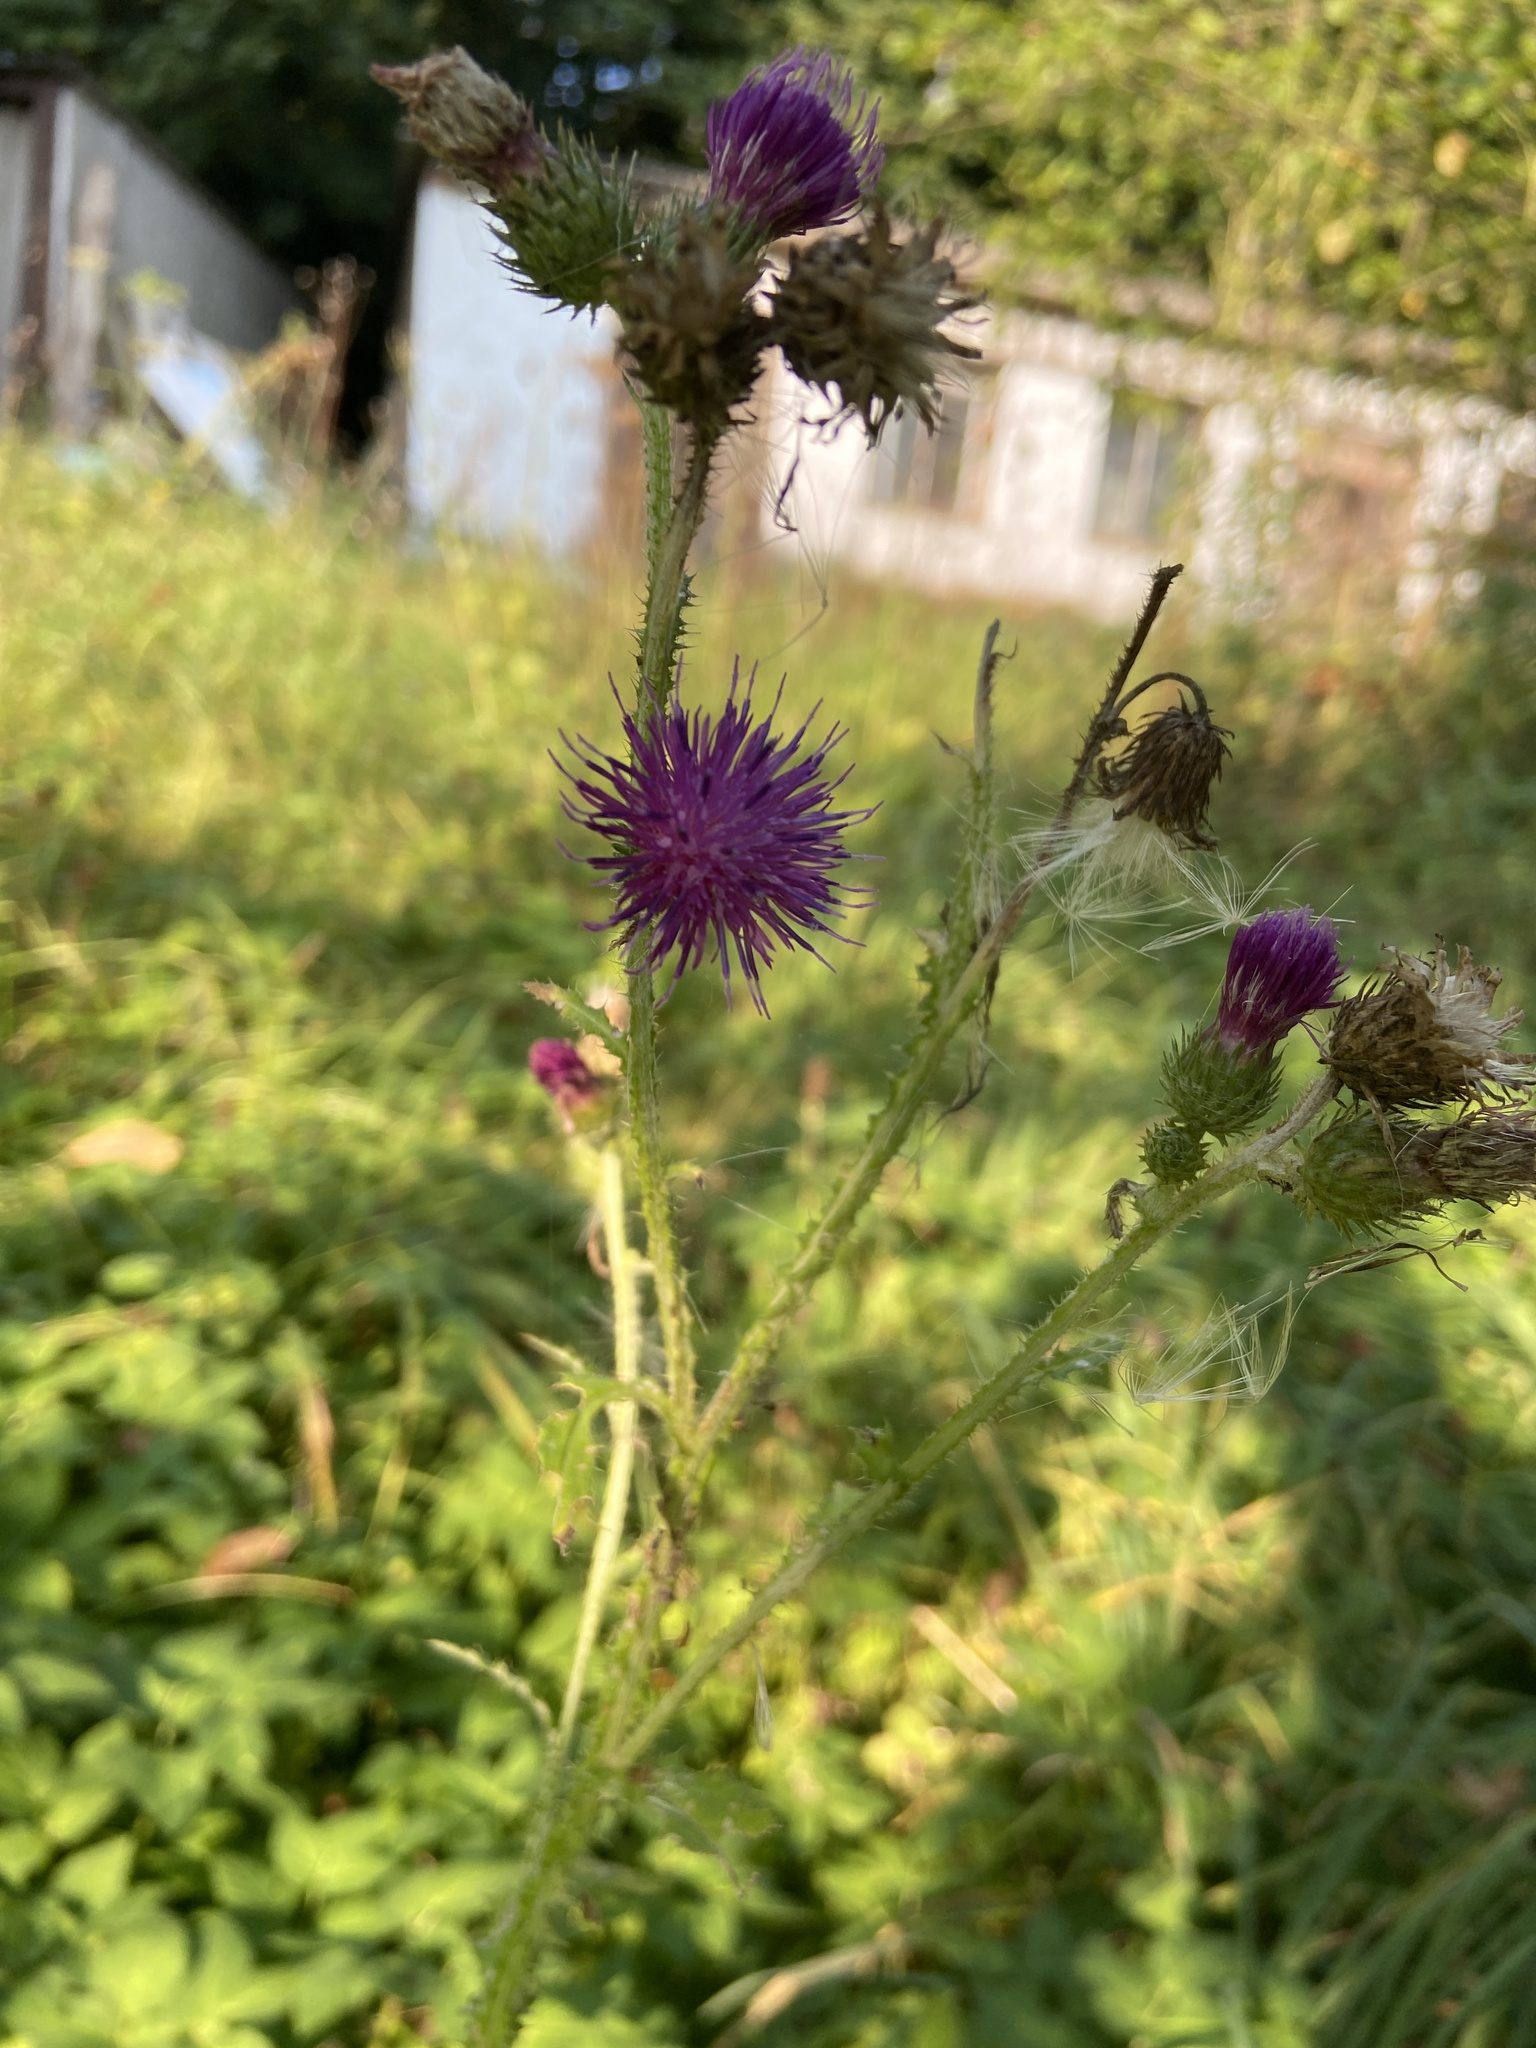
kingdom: Plantae
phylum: Tracheophyta
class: Magnoliopsida
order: Asterales
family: Asteraceae
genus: Carduus
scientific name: Carduus crispus
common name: Welted thistle
